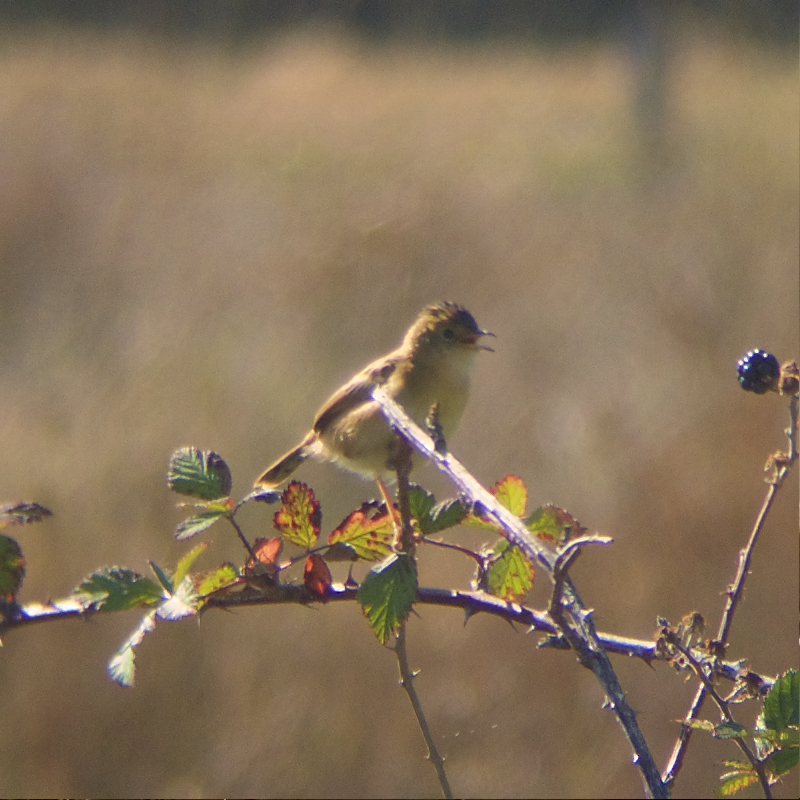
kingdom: Animalia
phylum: Chordata
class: Aves
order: Passeriformes
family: Cisticolidae
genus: Cisticola
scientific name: Cisticola exilis
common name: Golden-headed cisticola
